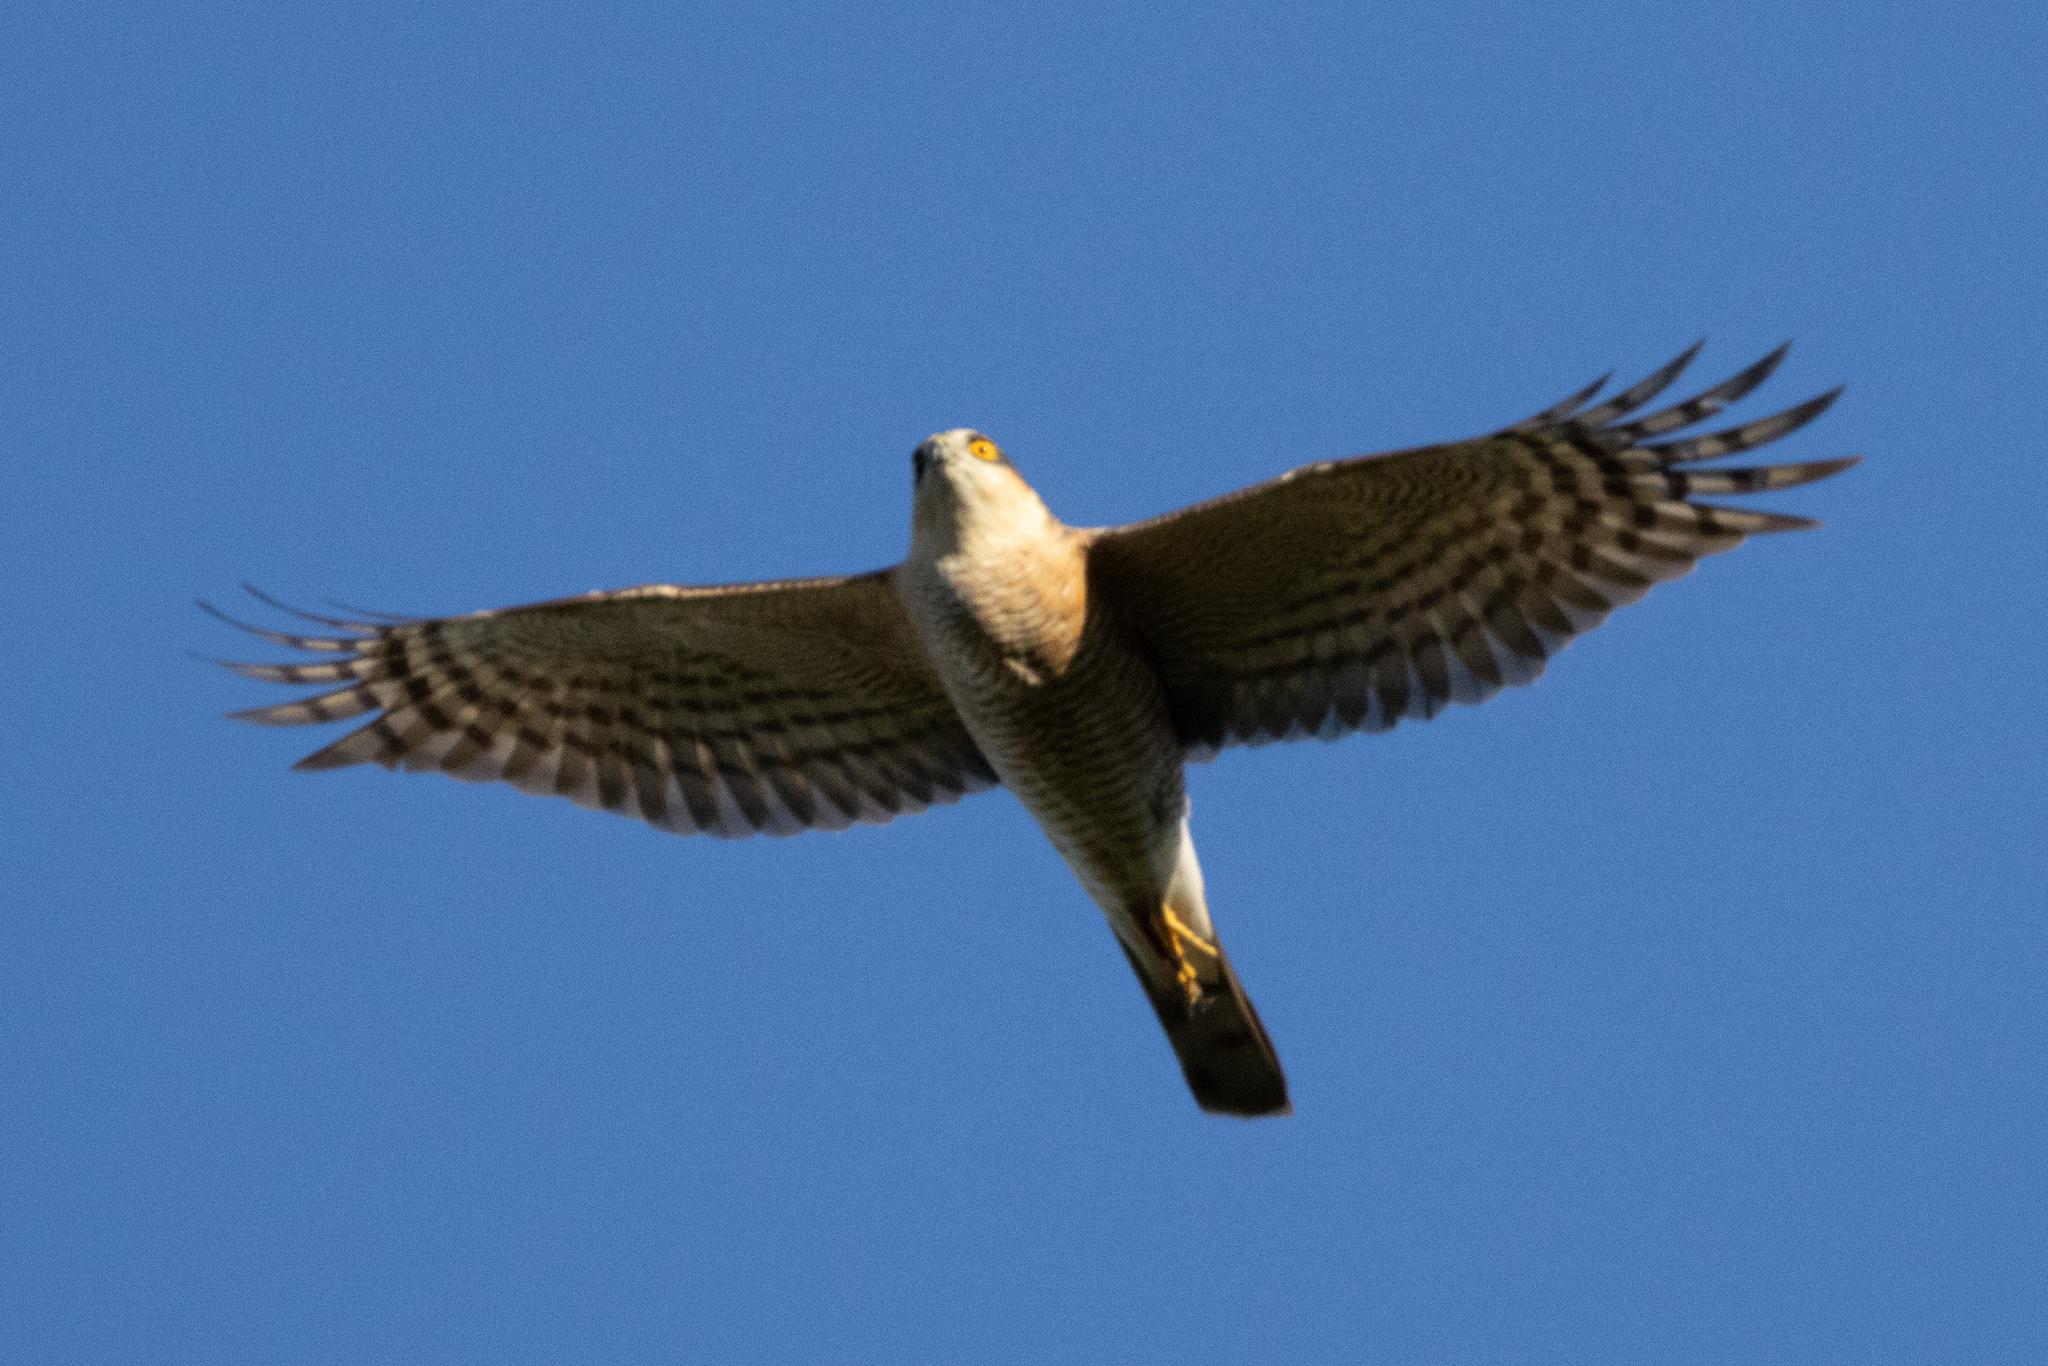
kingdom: Animalia
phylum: Chordata
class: Aves
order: Accipitriformes
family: Accipitridae
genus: Accipiter
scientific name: Accipiter nisus
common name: Eurasian sparrowhawk
